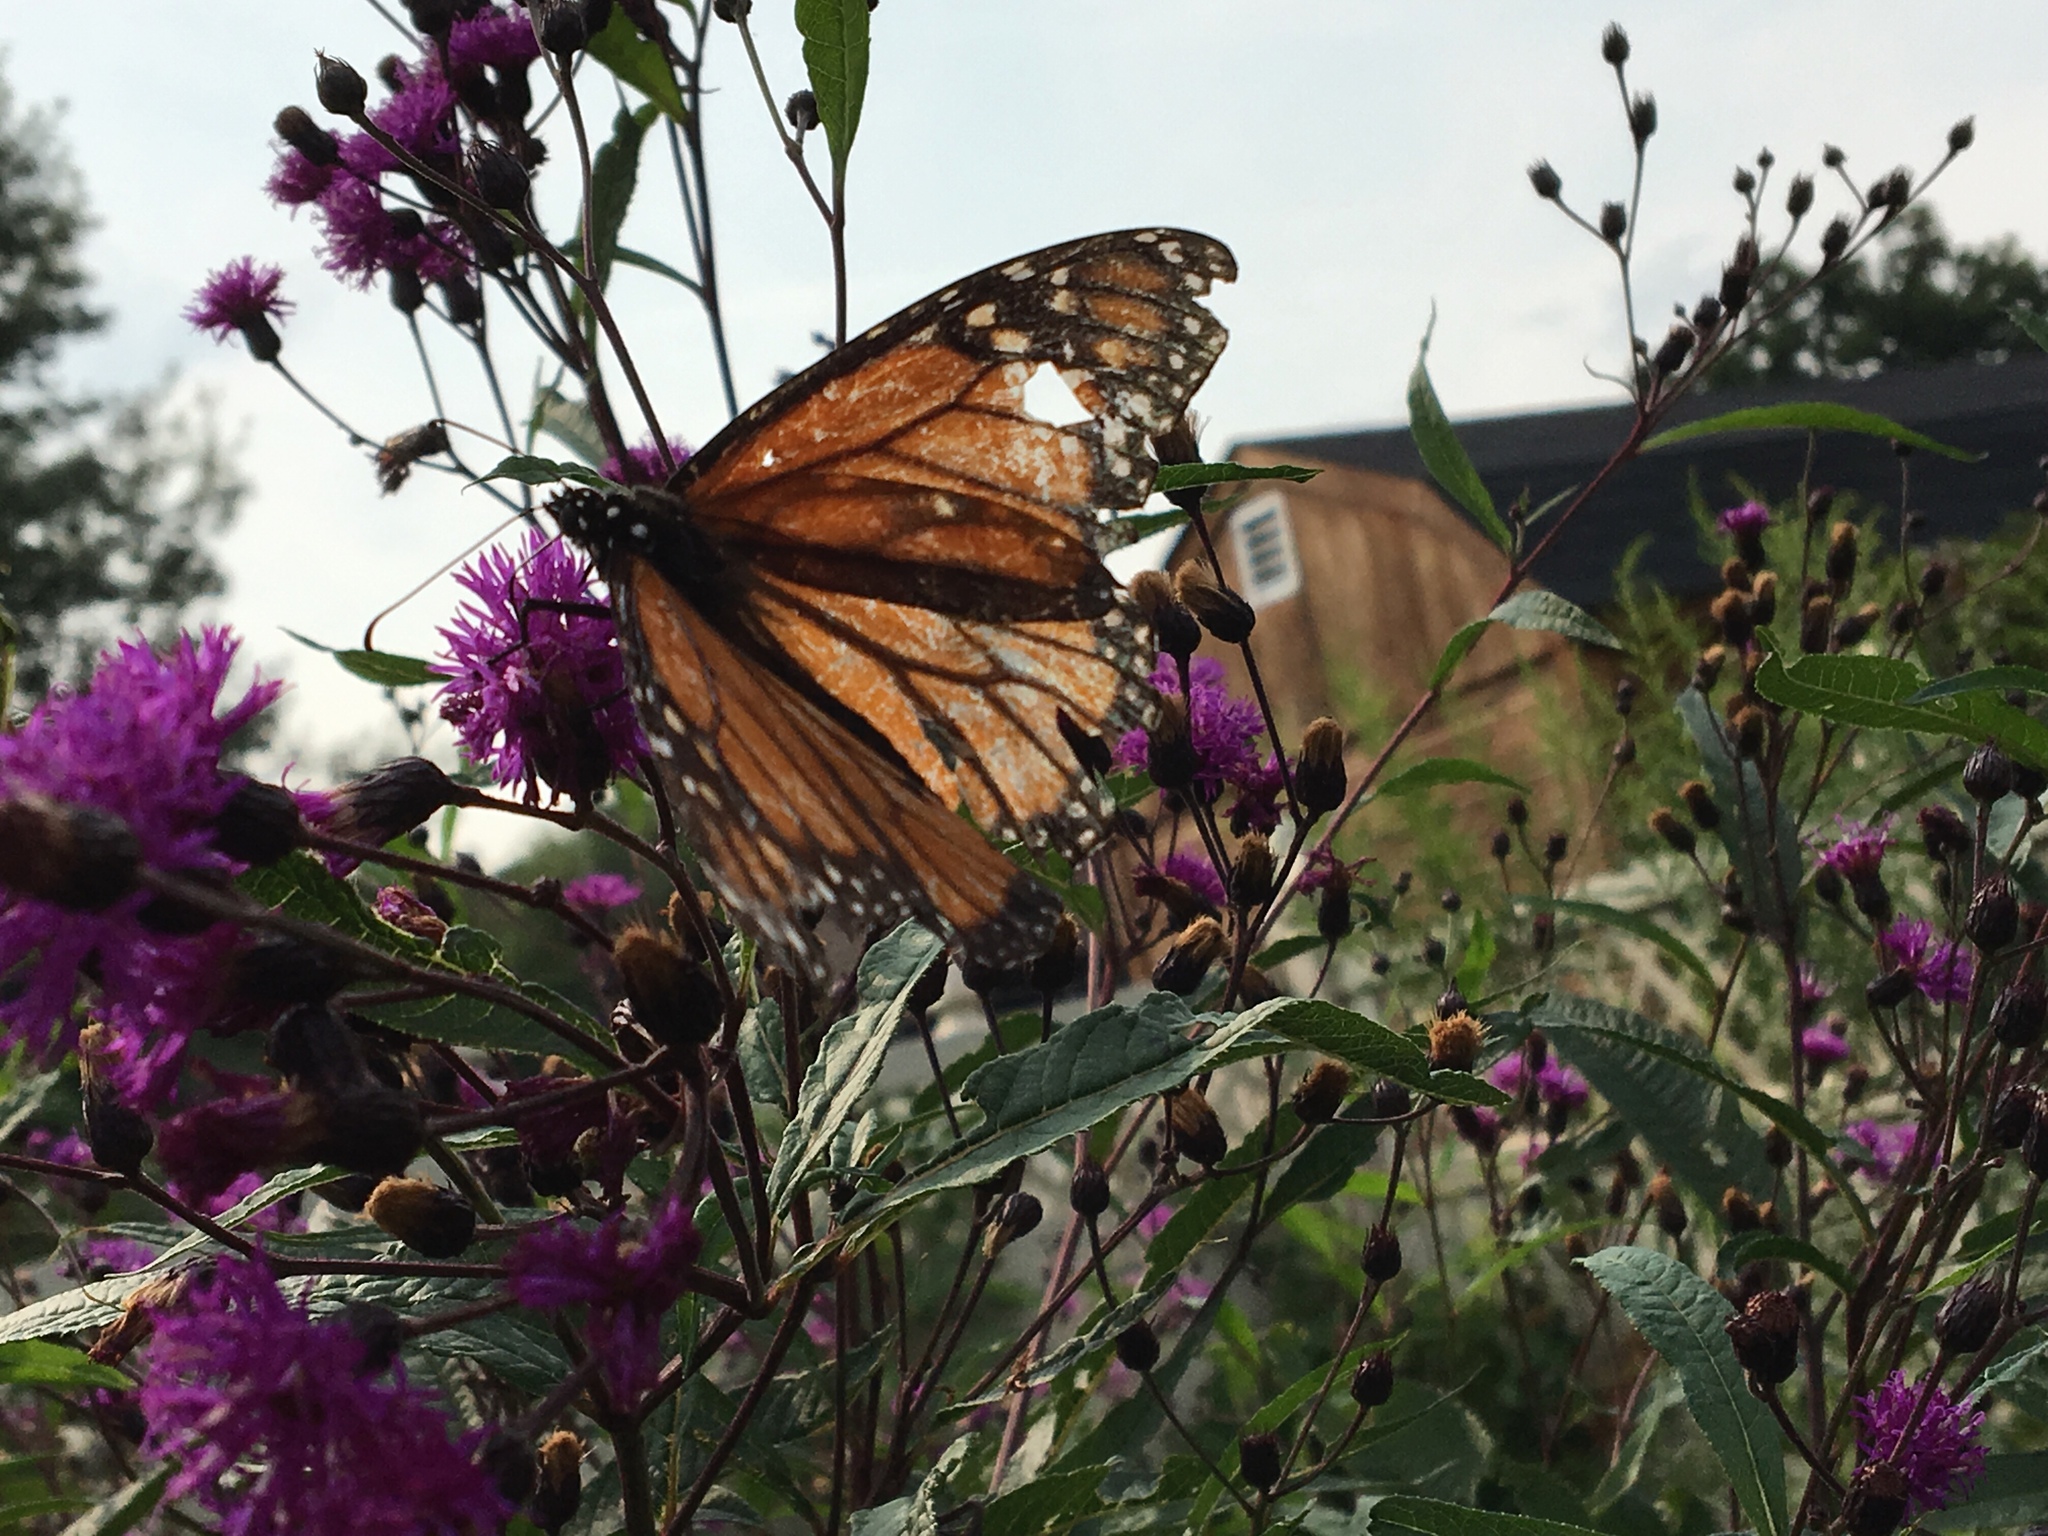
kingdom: Animalia
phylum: Arthropoda
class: Insecta
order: Lepidoptera
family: Nymphalidae
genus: Danaus
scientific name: Danaus plexippus
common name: Monarch
